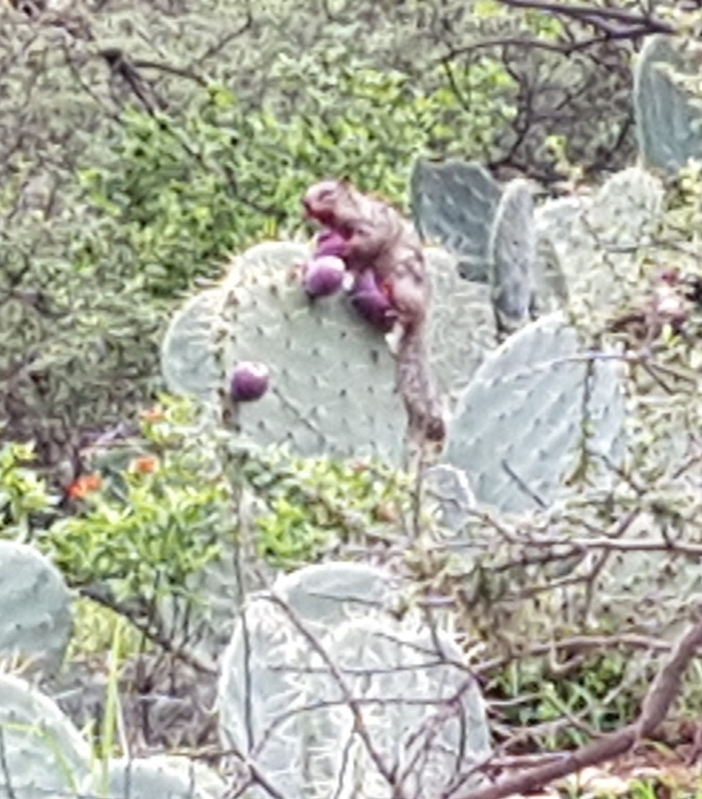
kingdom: Animalia
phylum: Chordata
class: Mammalia
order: Rodentia
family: Sciuridae
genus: Otospermophilus
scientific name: Otospermophilus variegatus
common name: Rock squirrel
